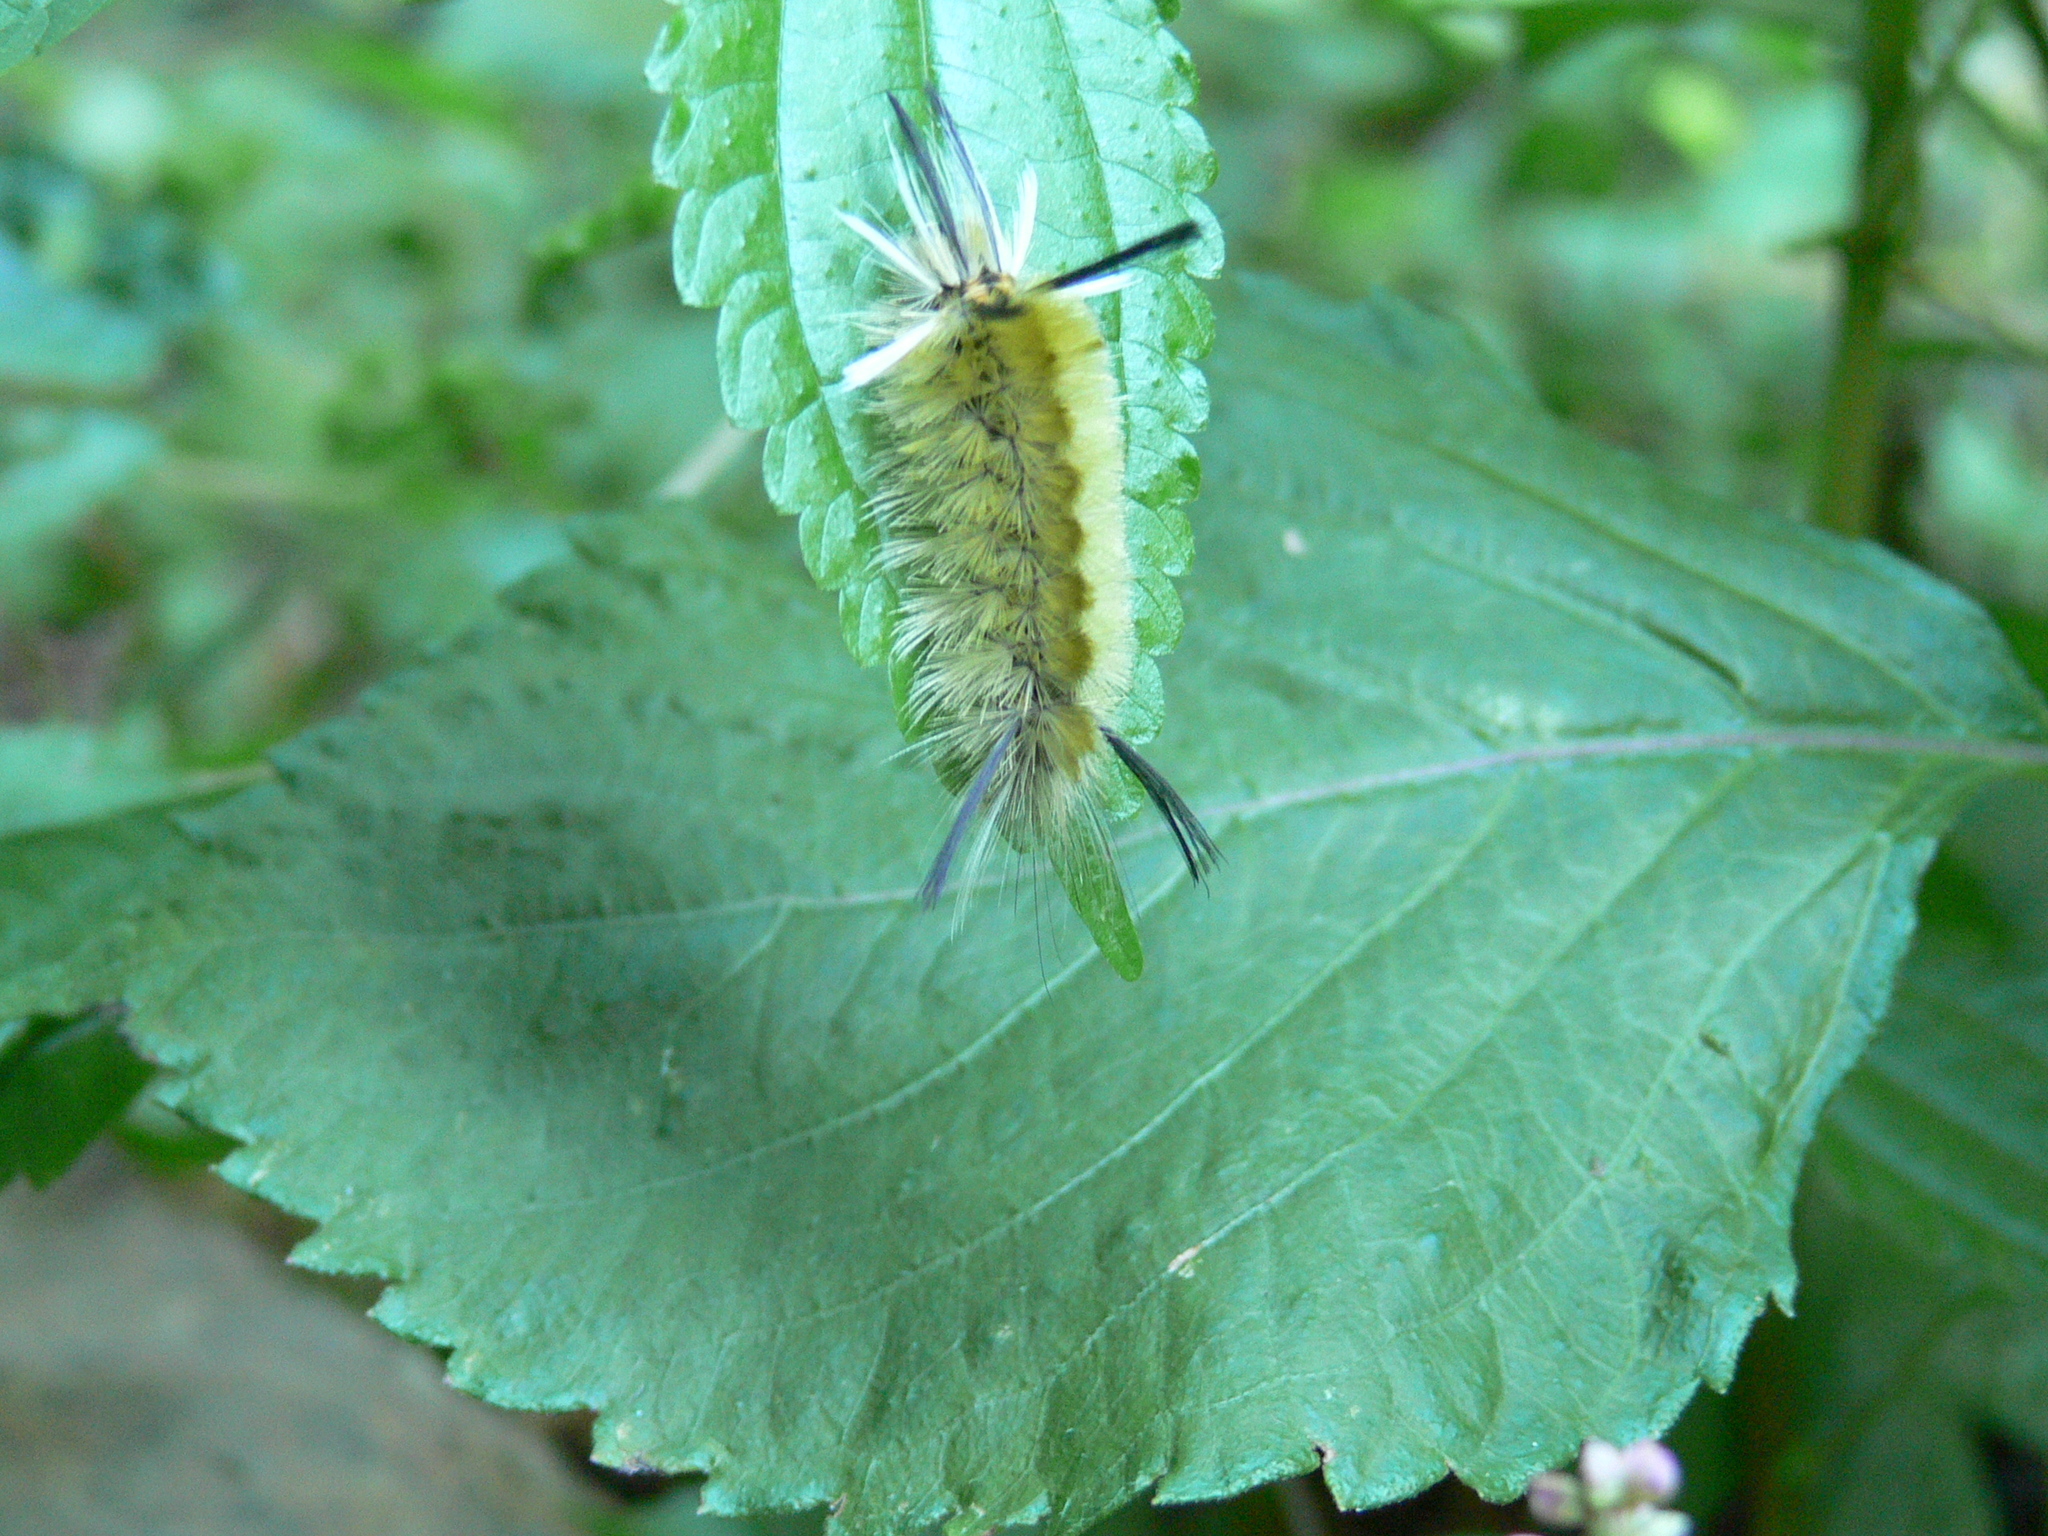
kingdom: Animalia
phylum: Arthropoda
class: Insecta
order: Lepidoptera
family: Erebidae
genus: Halysidota
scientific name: Halysidota tessellaris
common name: Banded tussock moth
